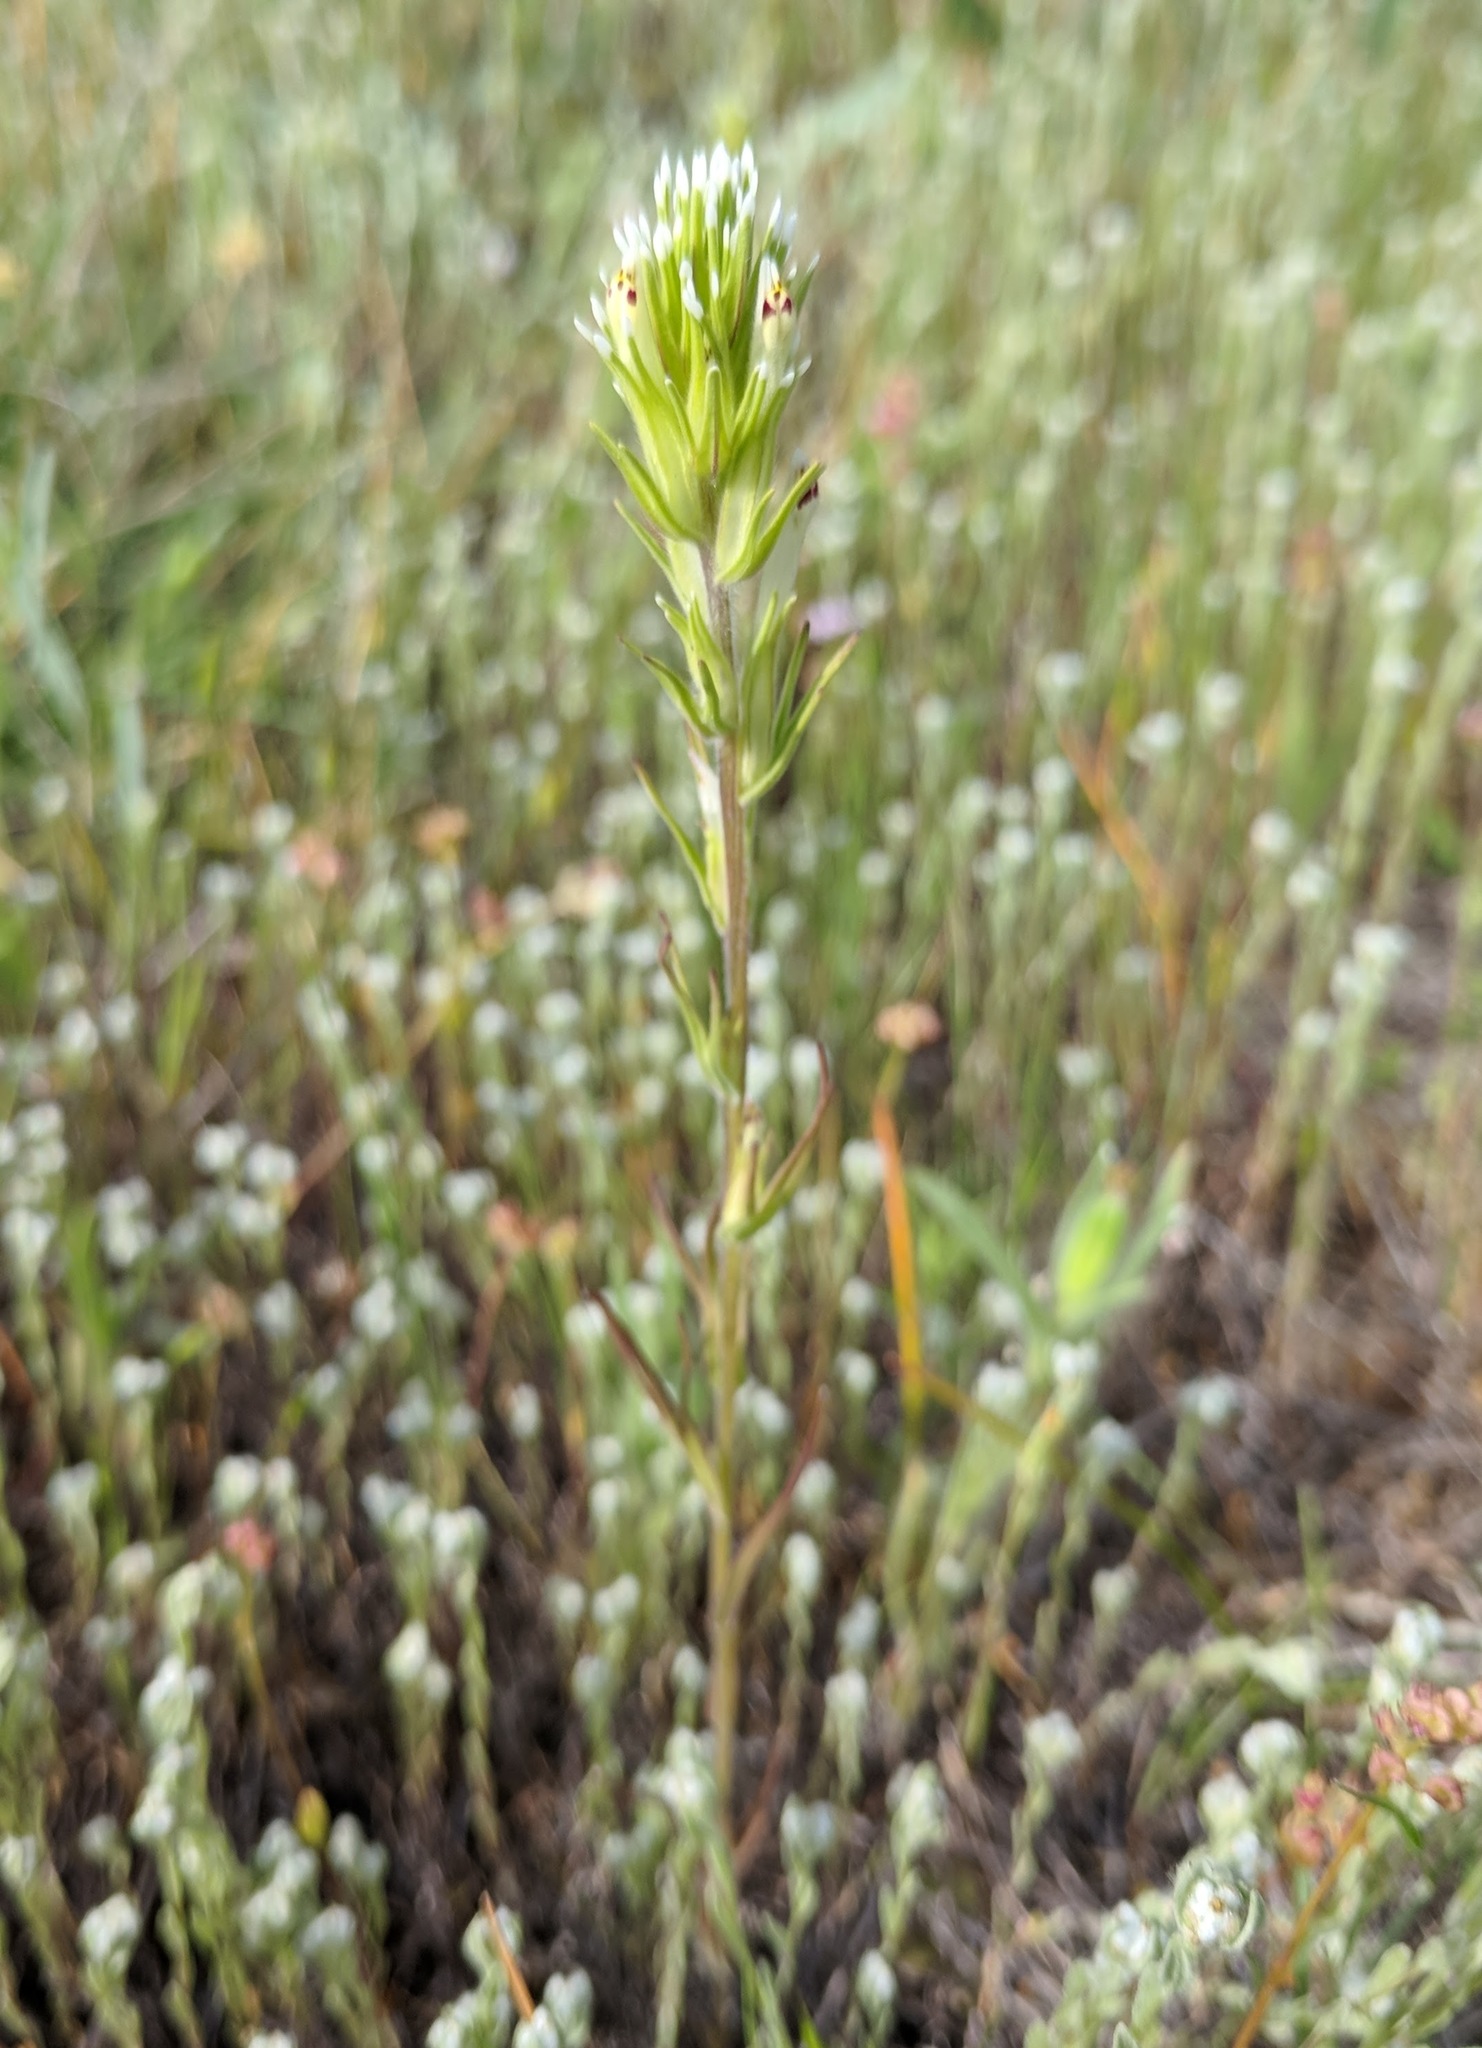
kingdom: Plantae
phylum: Tracheophyta
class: Magnoliopsida
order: Lamiales
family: Orobanchaceae
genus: Castilleja
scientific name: Castilleja attenuata
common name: Valley tassels
